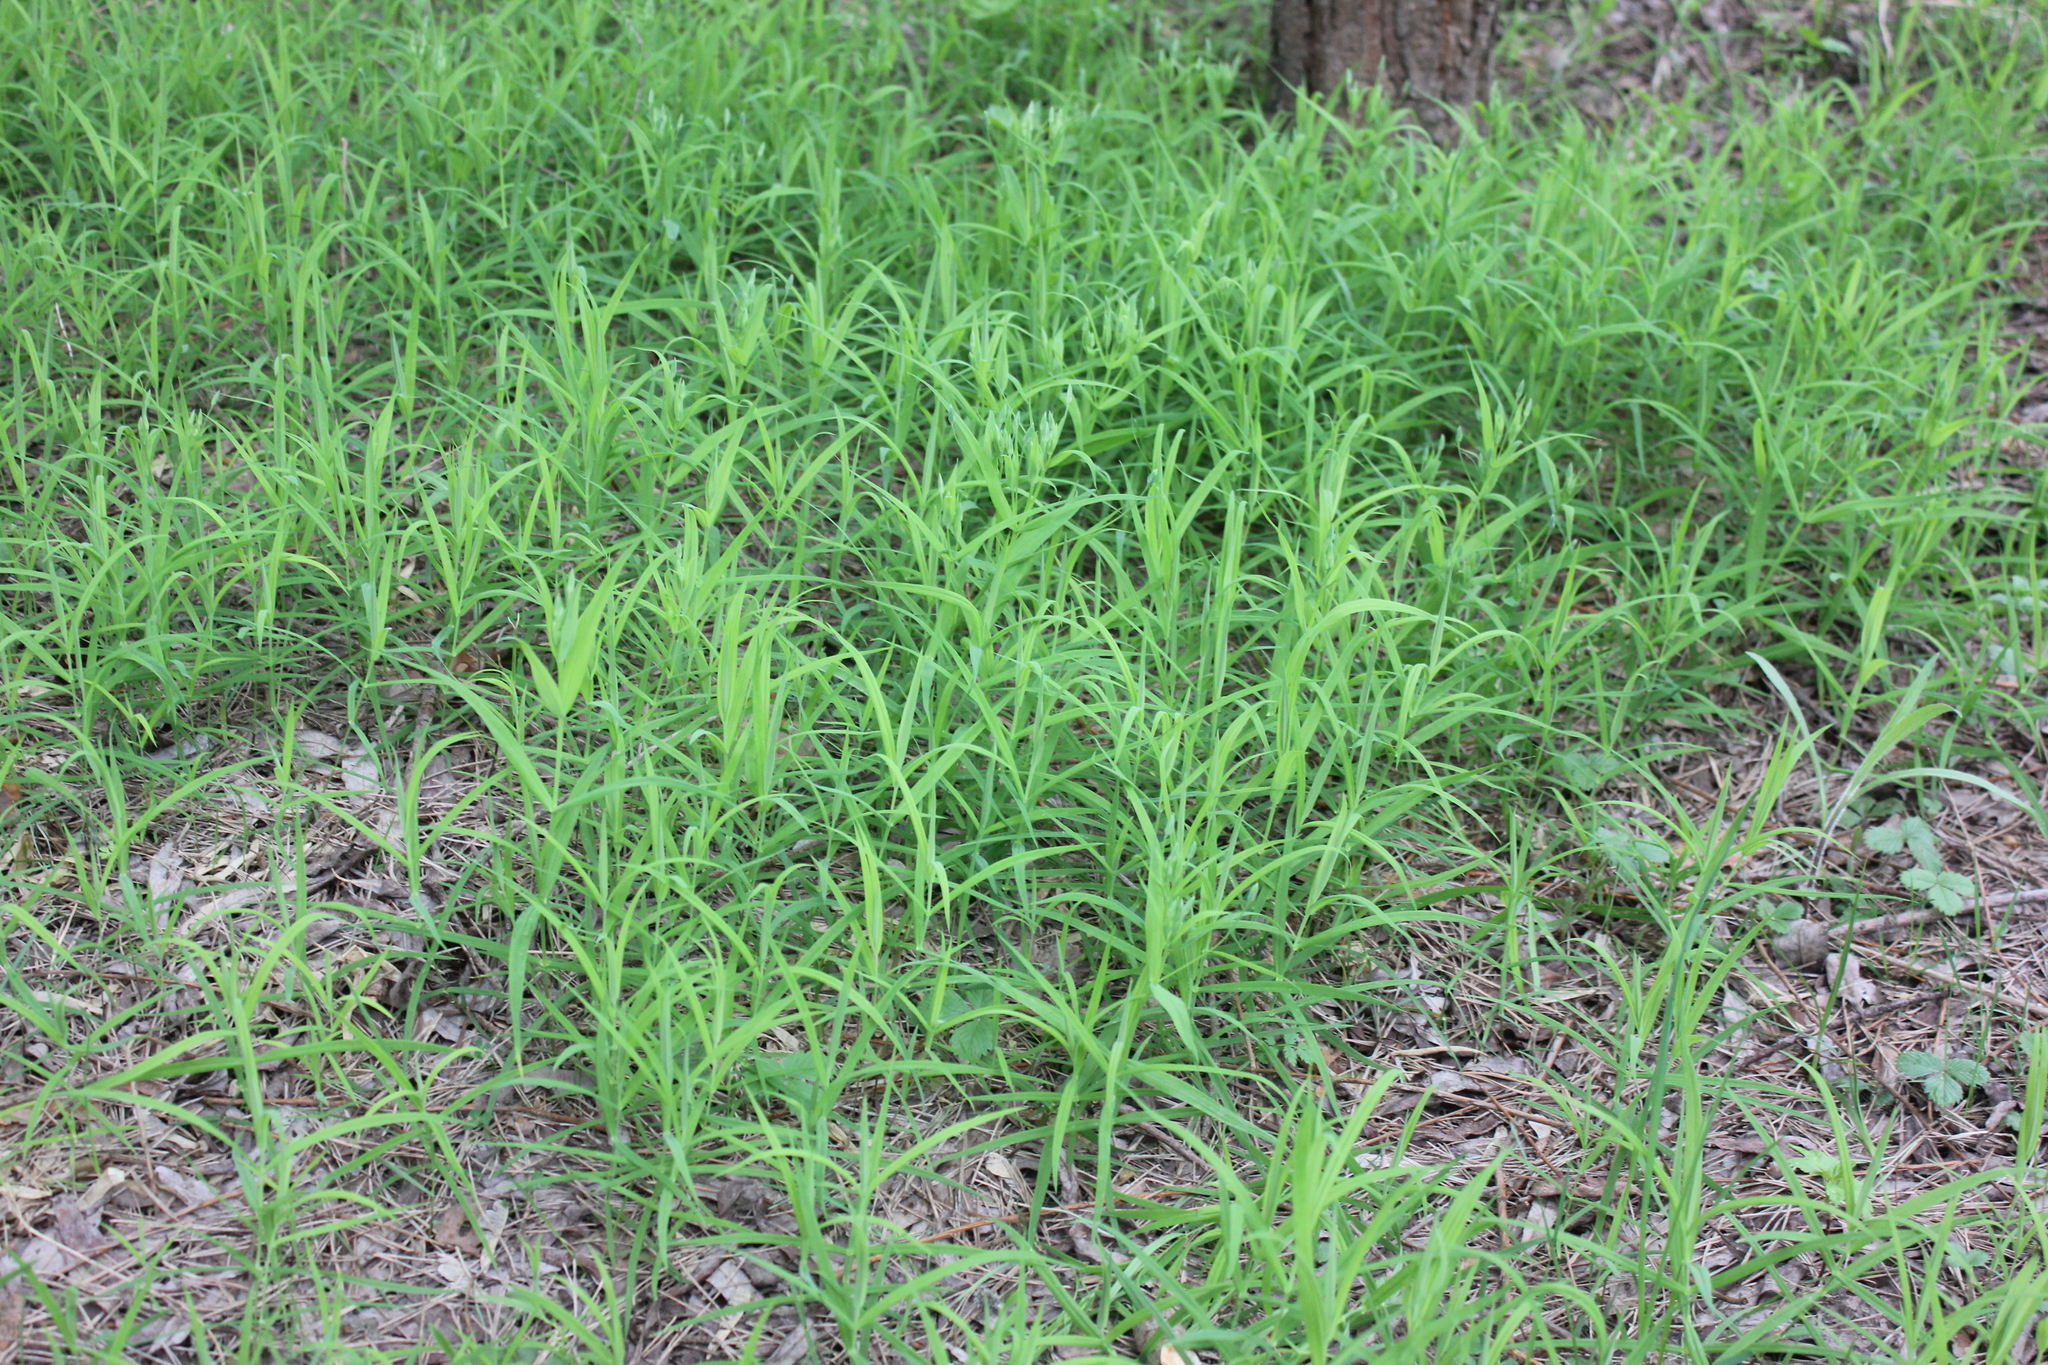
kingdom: Plantae
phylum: Tracheophyta
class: Magnoliopsida
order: Caryophyllales
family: Caryophyllaceae
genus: Rabelera
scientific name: Rabelera holostea
